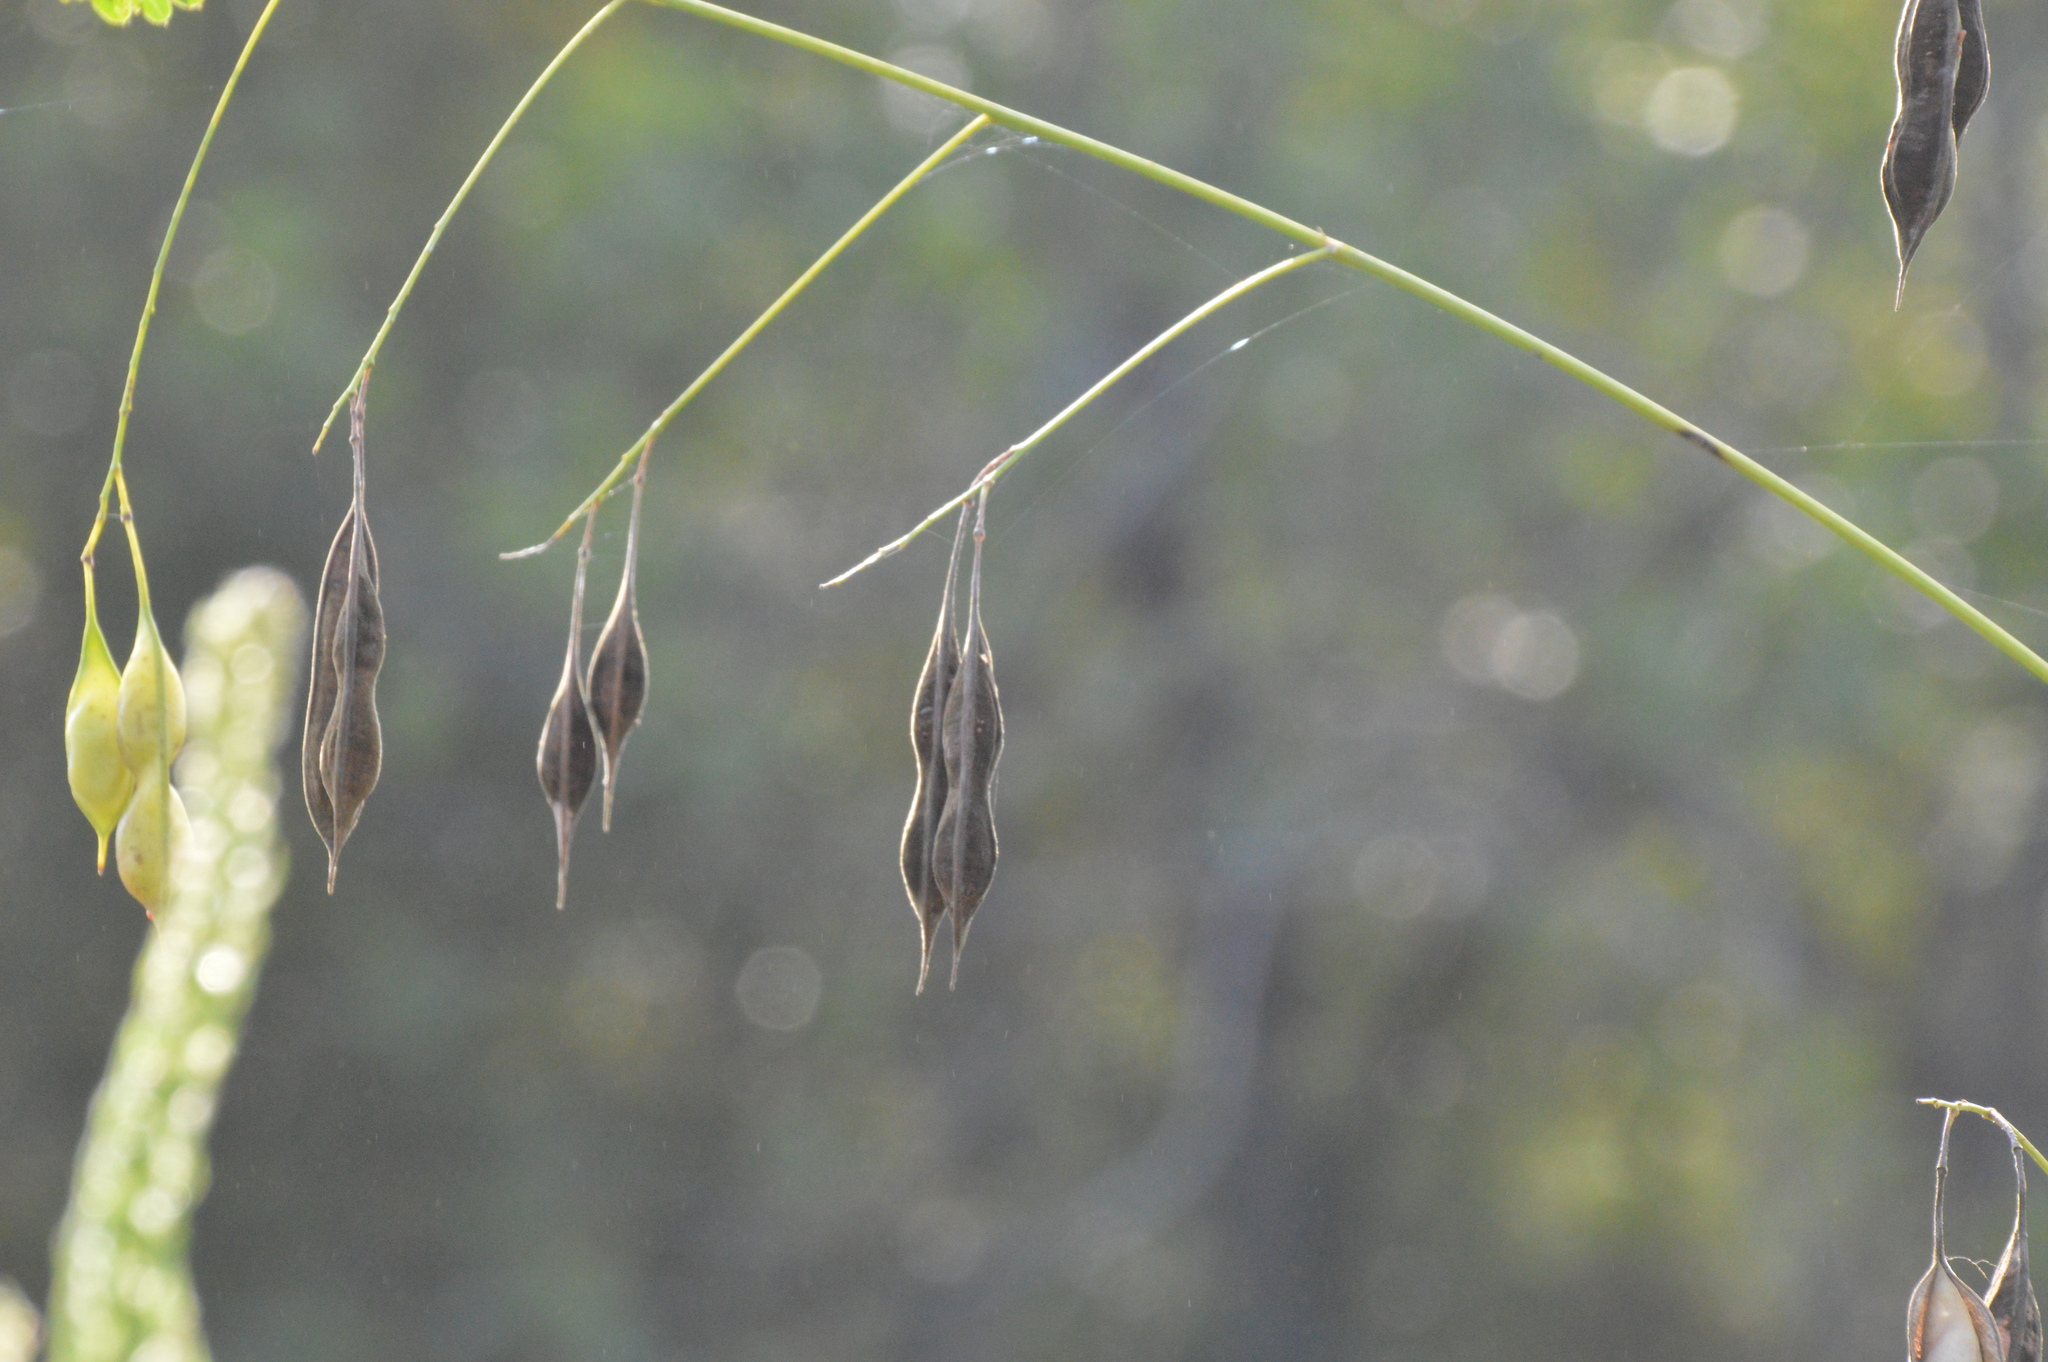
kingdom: Plantae
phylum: Tracheophyta
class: Magnoliopsida
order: Fabales
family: Fabaceae
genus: Sesbania
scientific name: Sesbania vesicaria
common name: Bagpod
